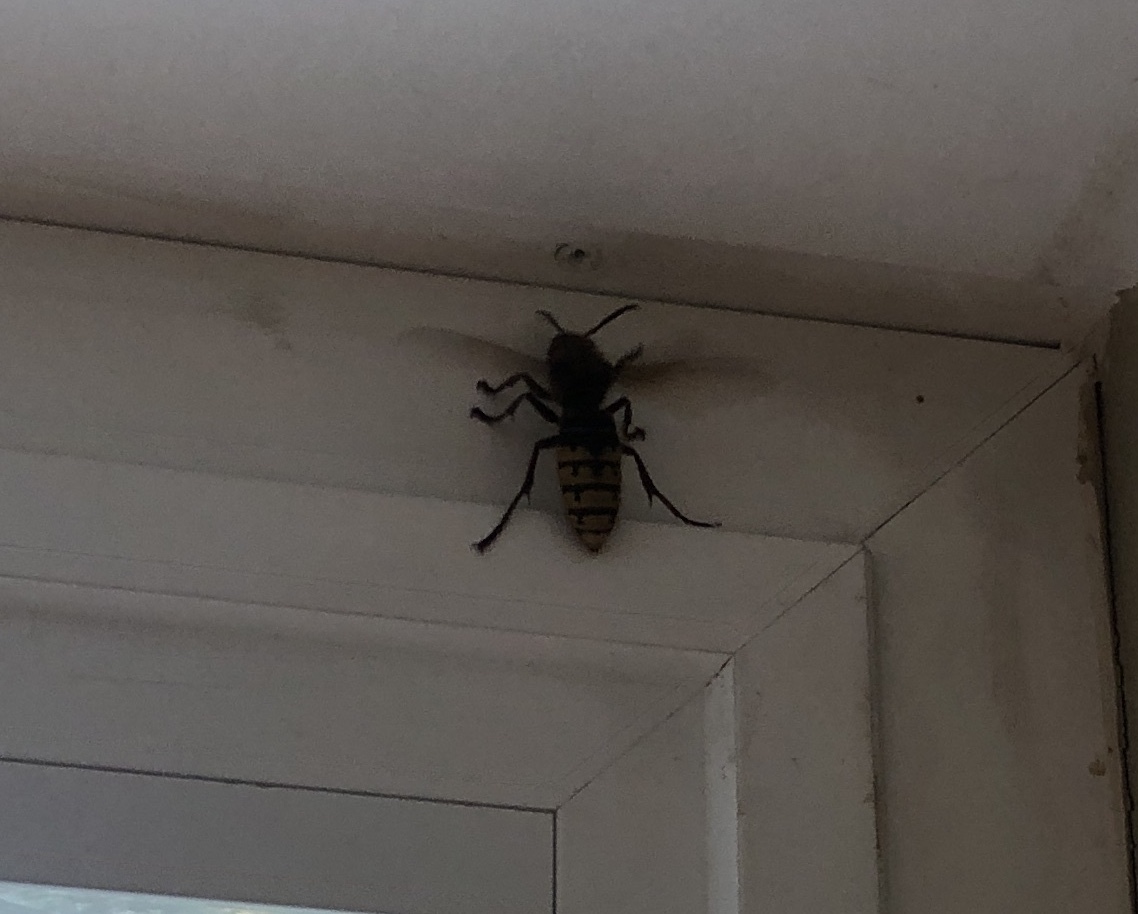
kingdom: Animalia
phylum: Arthropoda
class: Insecta
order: Hymenoptera
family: Vespidae
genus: Vespa
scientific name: Vespa crabro
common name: Hornet
